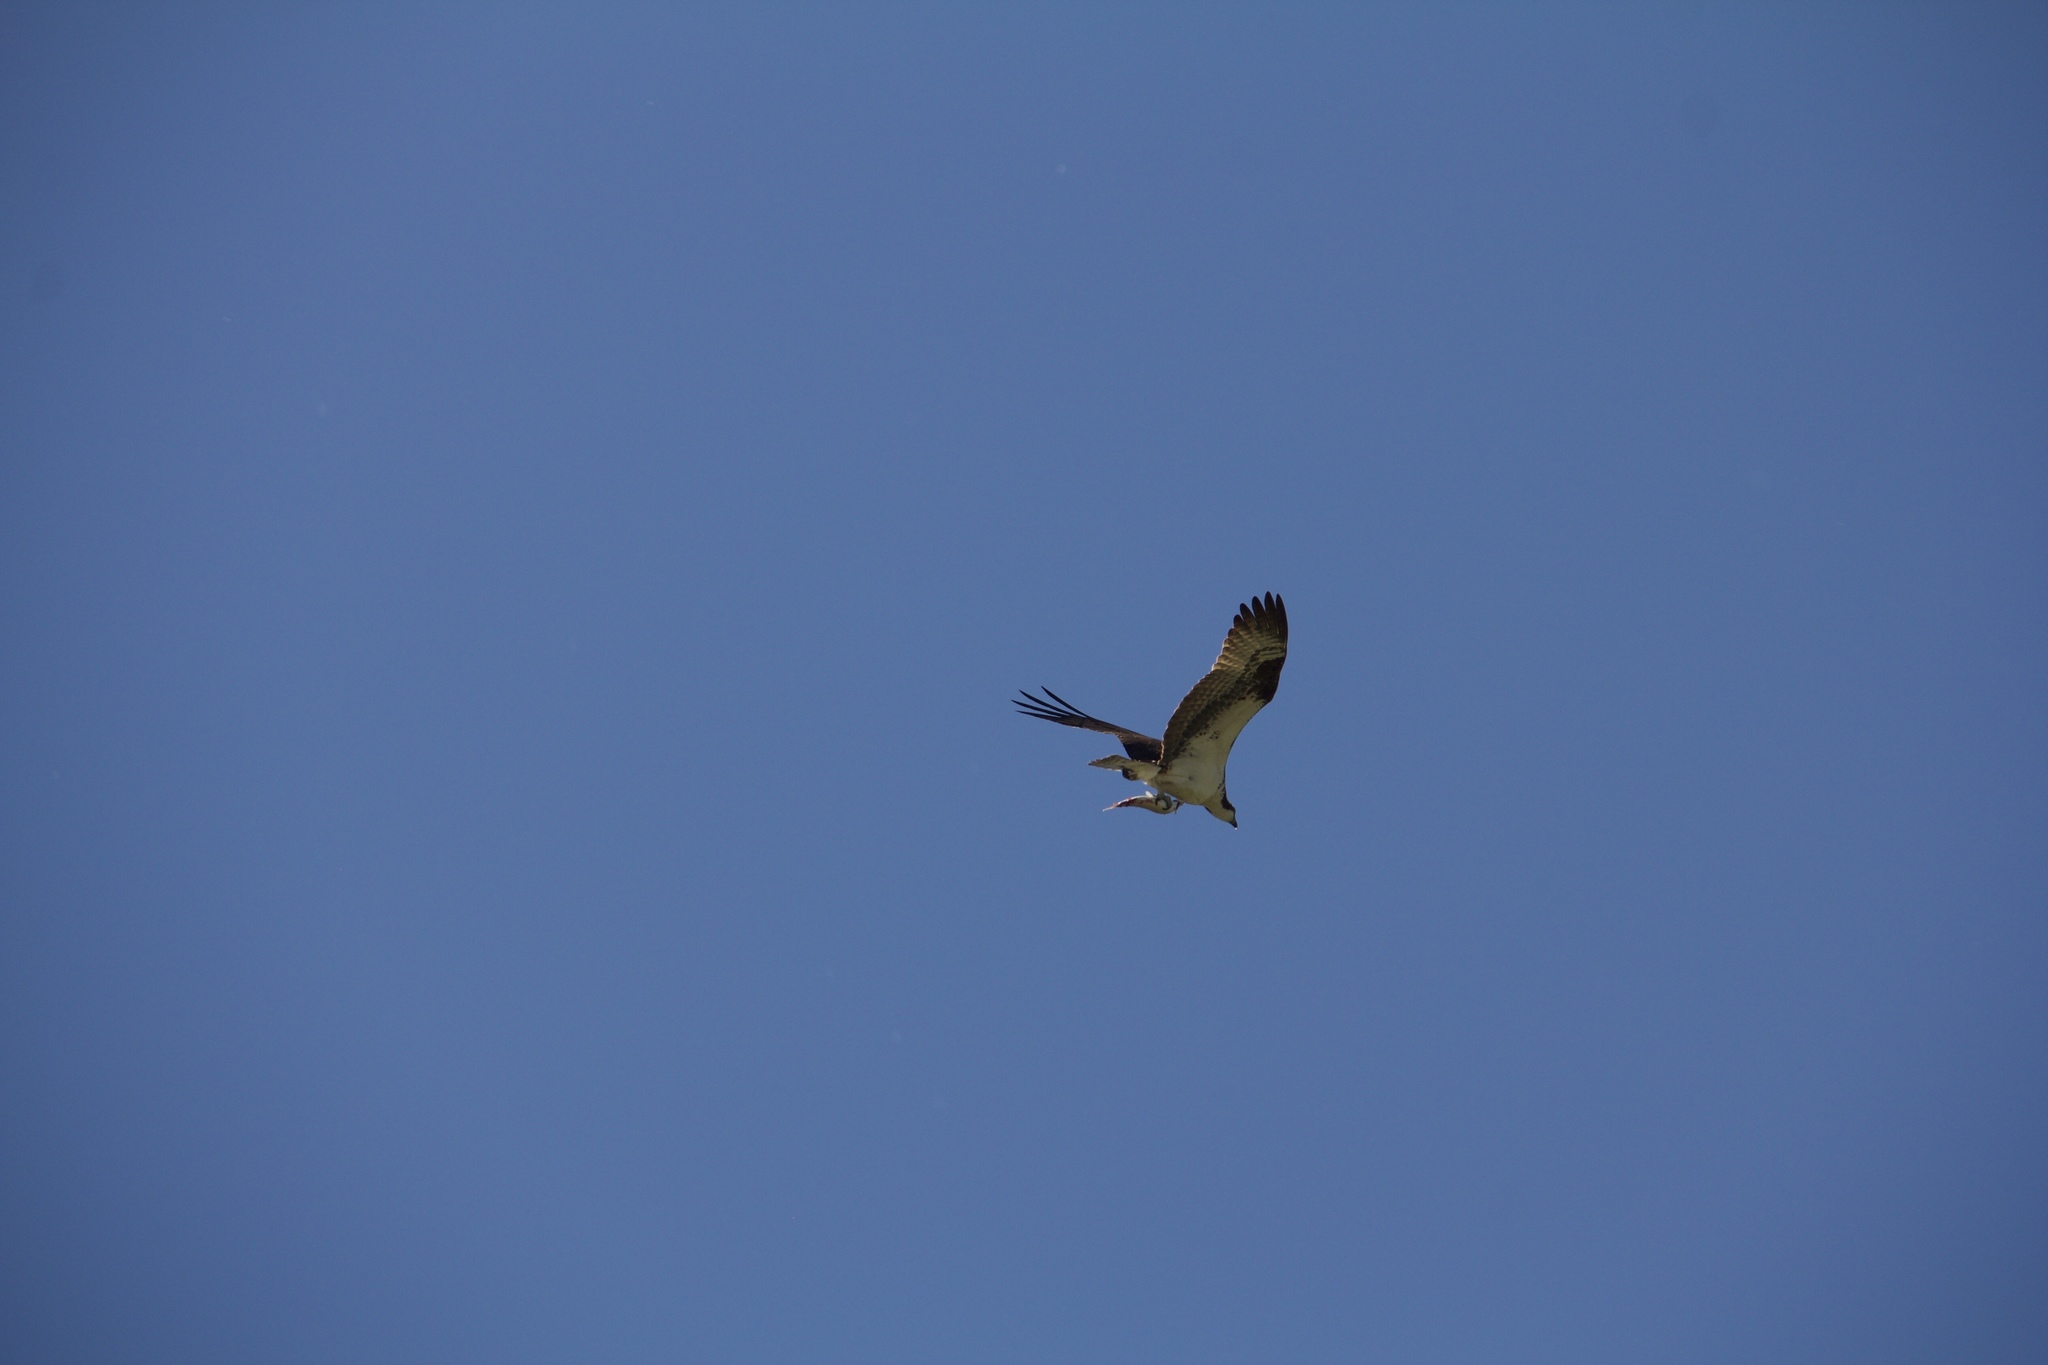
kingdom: Animalia
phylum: Chordata
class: Aves
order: Accipitriformes
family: Pandionidae
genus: Pandion
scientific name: Pandion haliaetus
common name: Osprey
